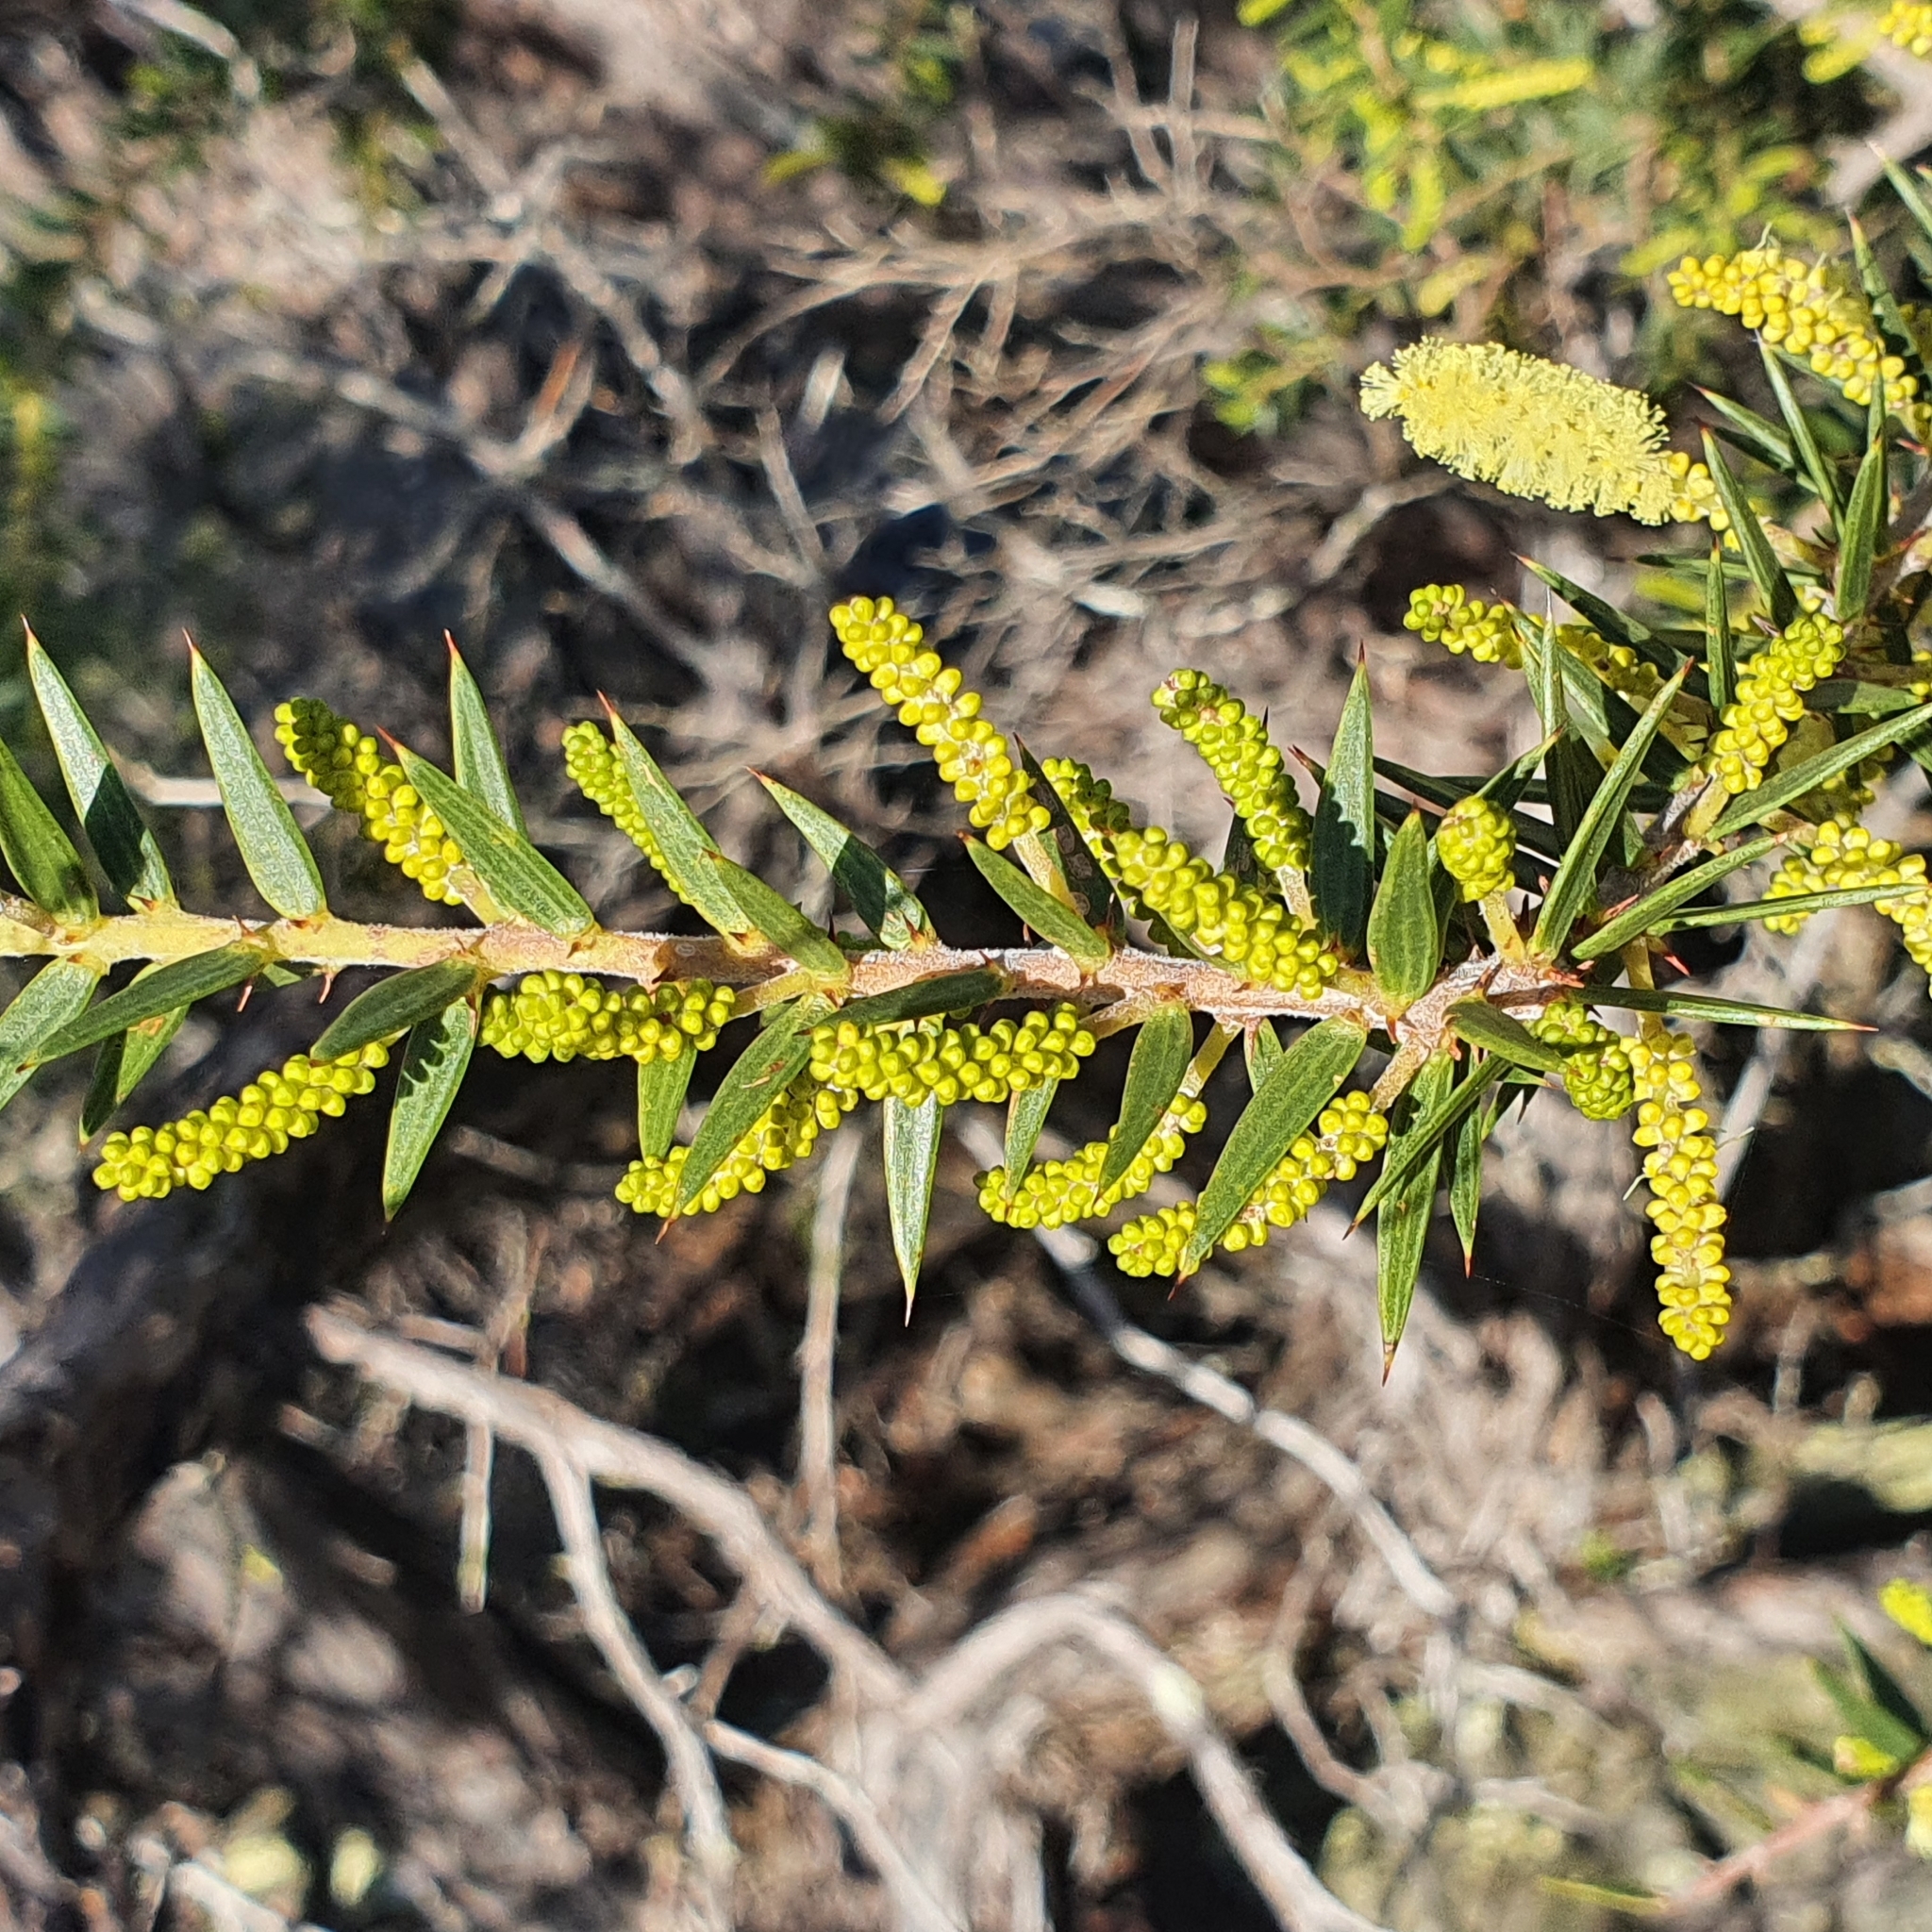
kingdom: Plantae
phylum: Tracheophyta
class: Magnoliopsida
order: Fabales
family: Fabaceae
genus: Acacia
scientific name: Acacia oxycedrus
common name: Spike wattle
